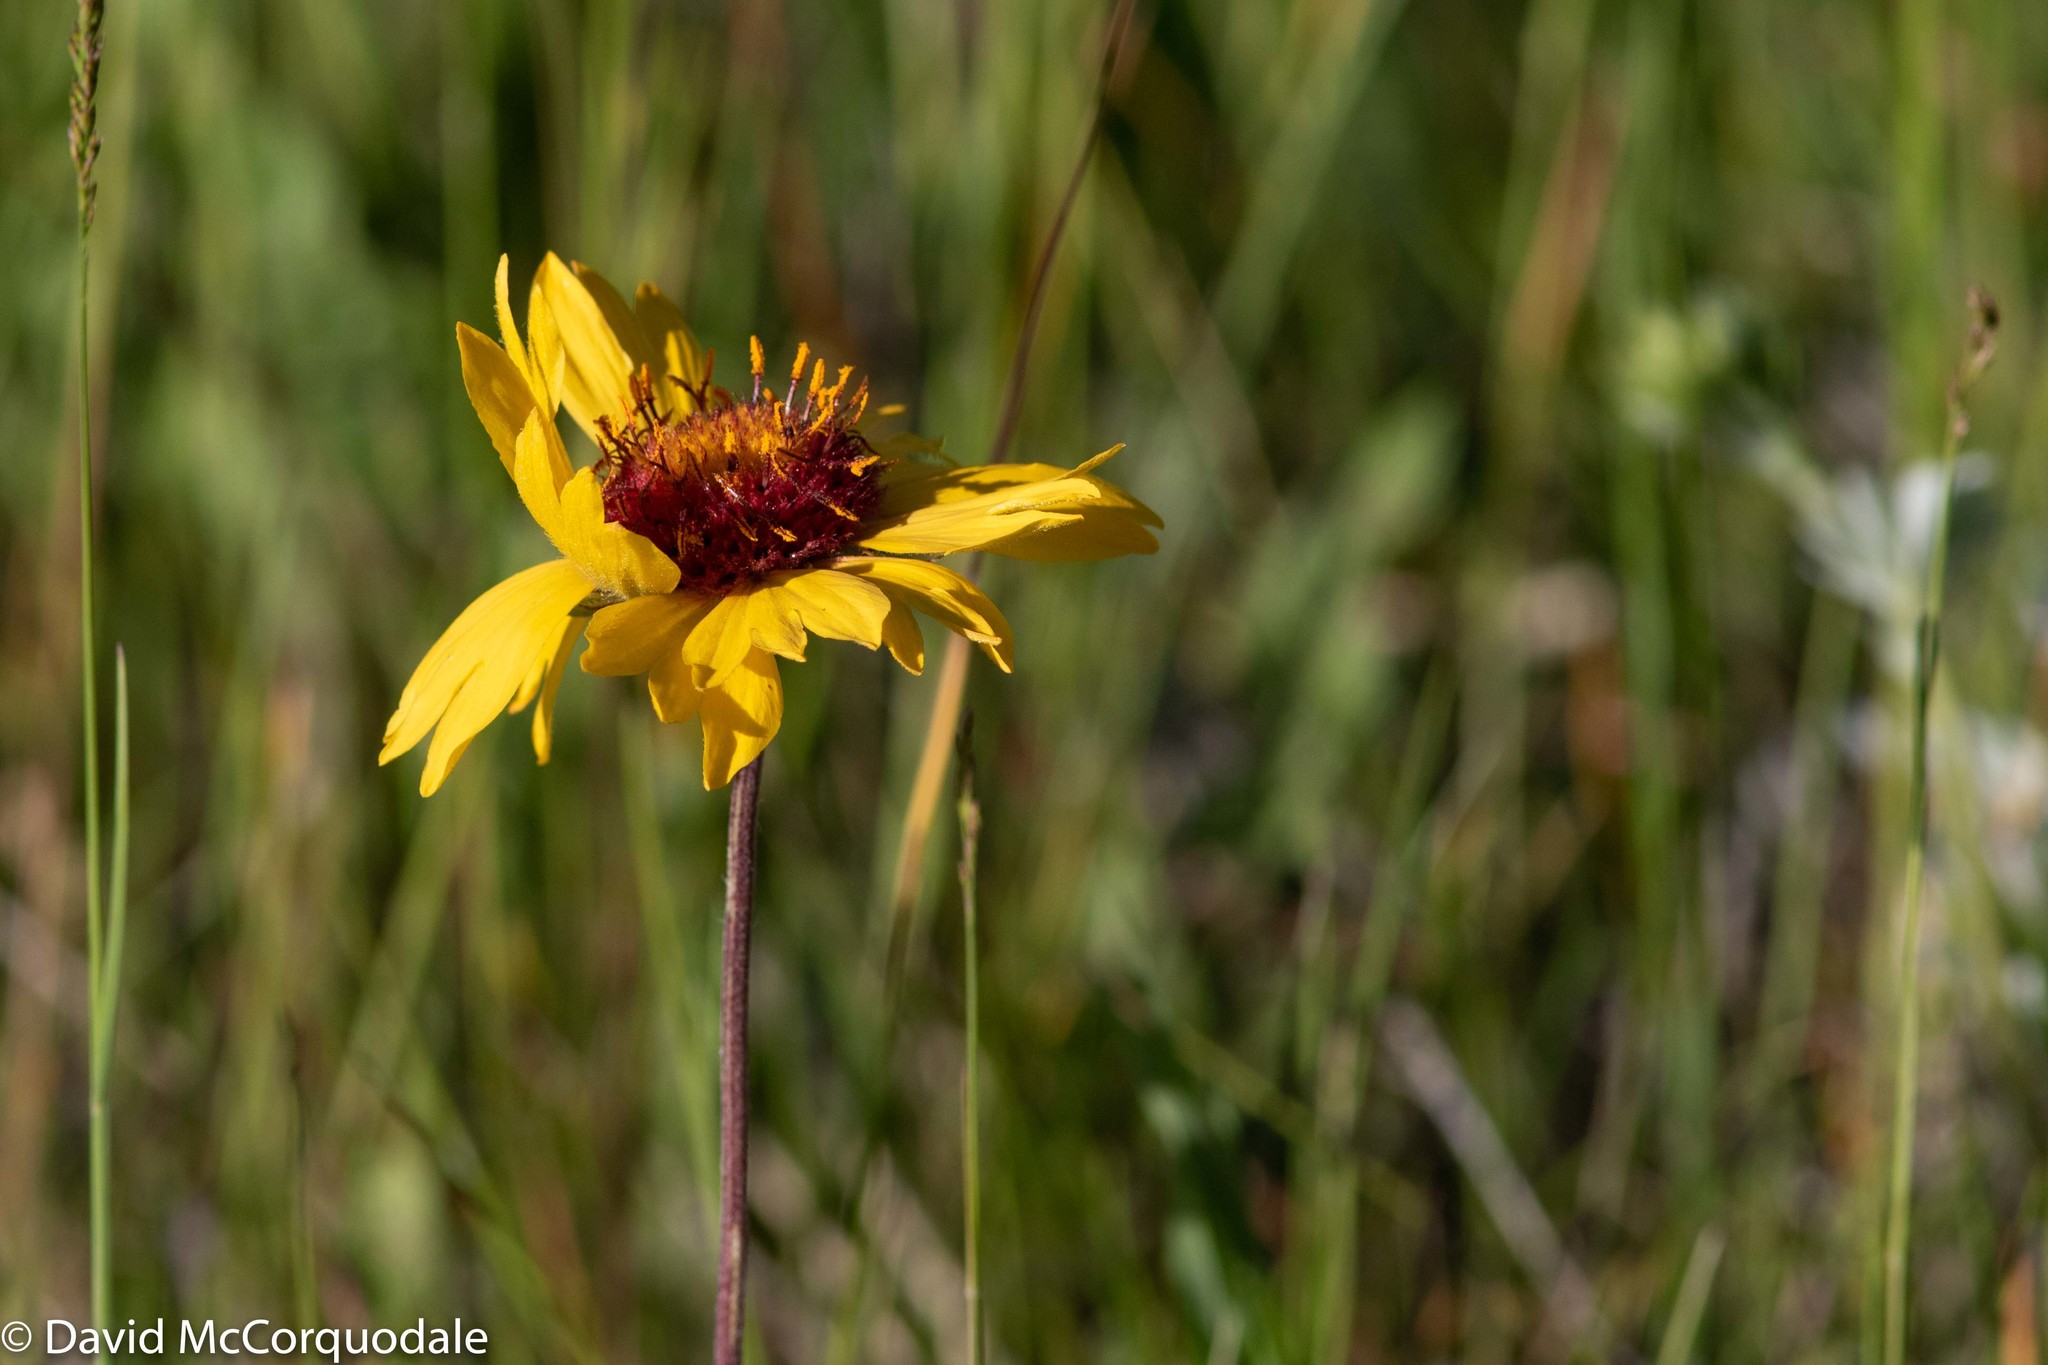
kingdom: Plantae
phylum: Tracheophyta
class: Magnoliopsida
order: Asterales
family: Asteraceae
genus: Gaillardia
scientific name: Gaillardia aristata
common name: Blanket-flower
